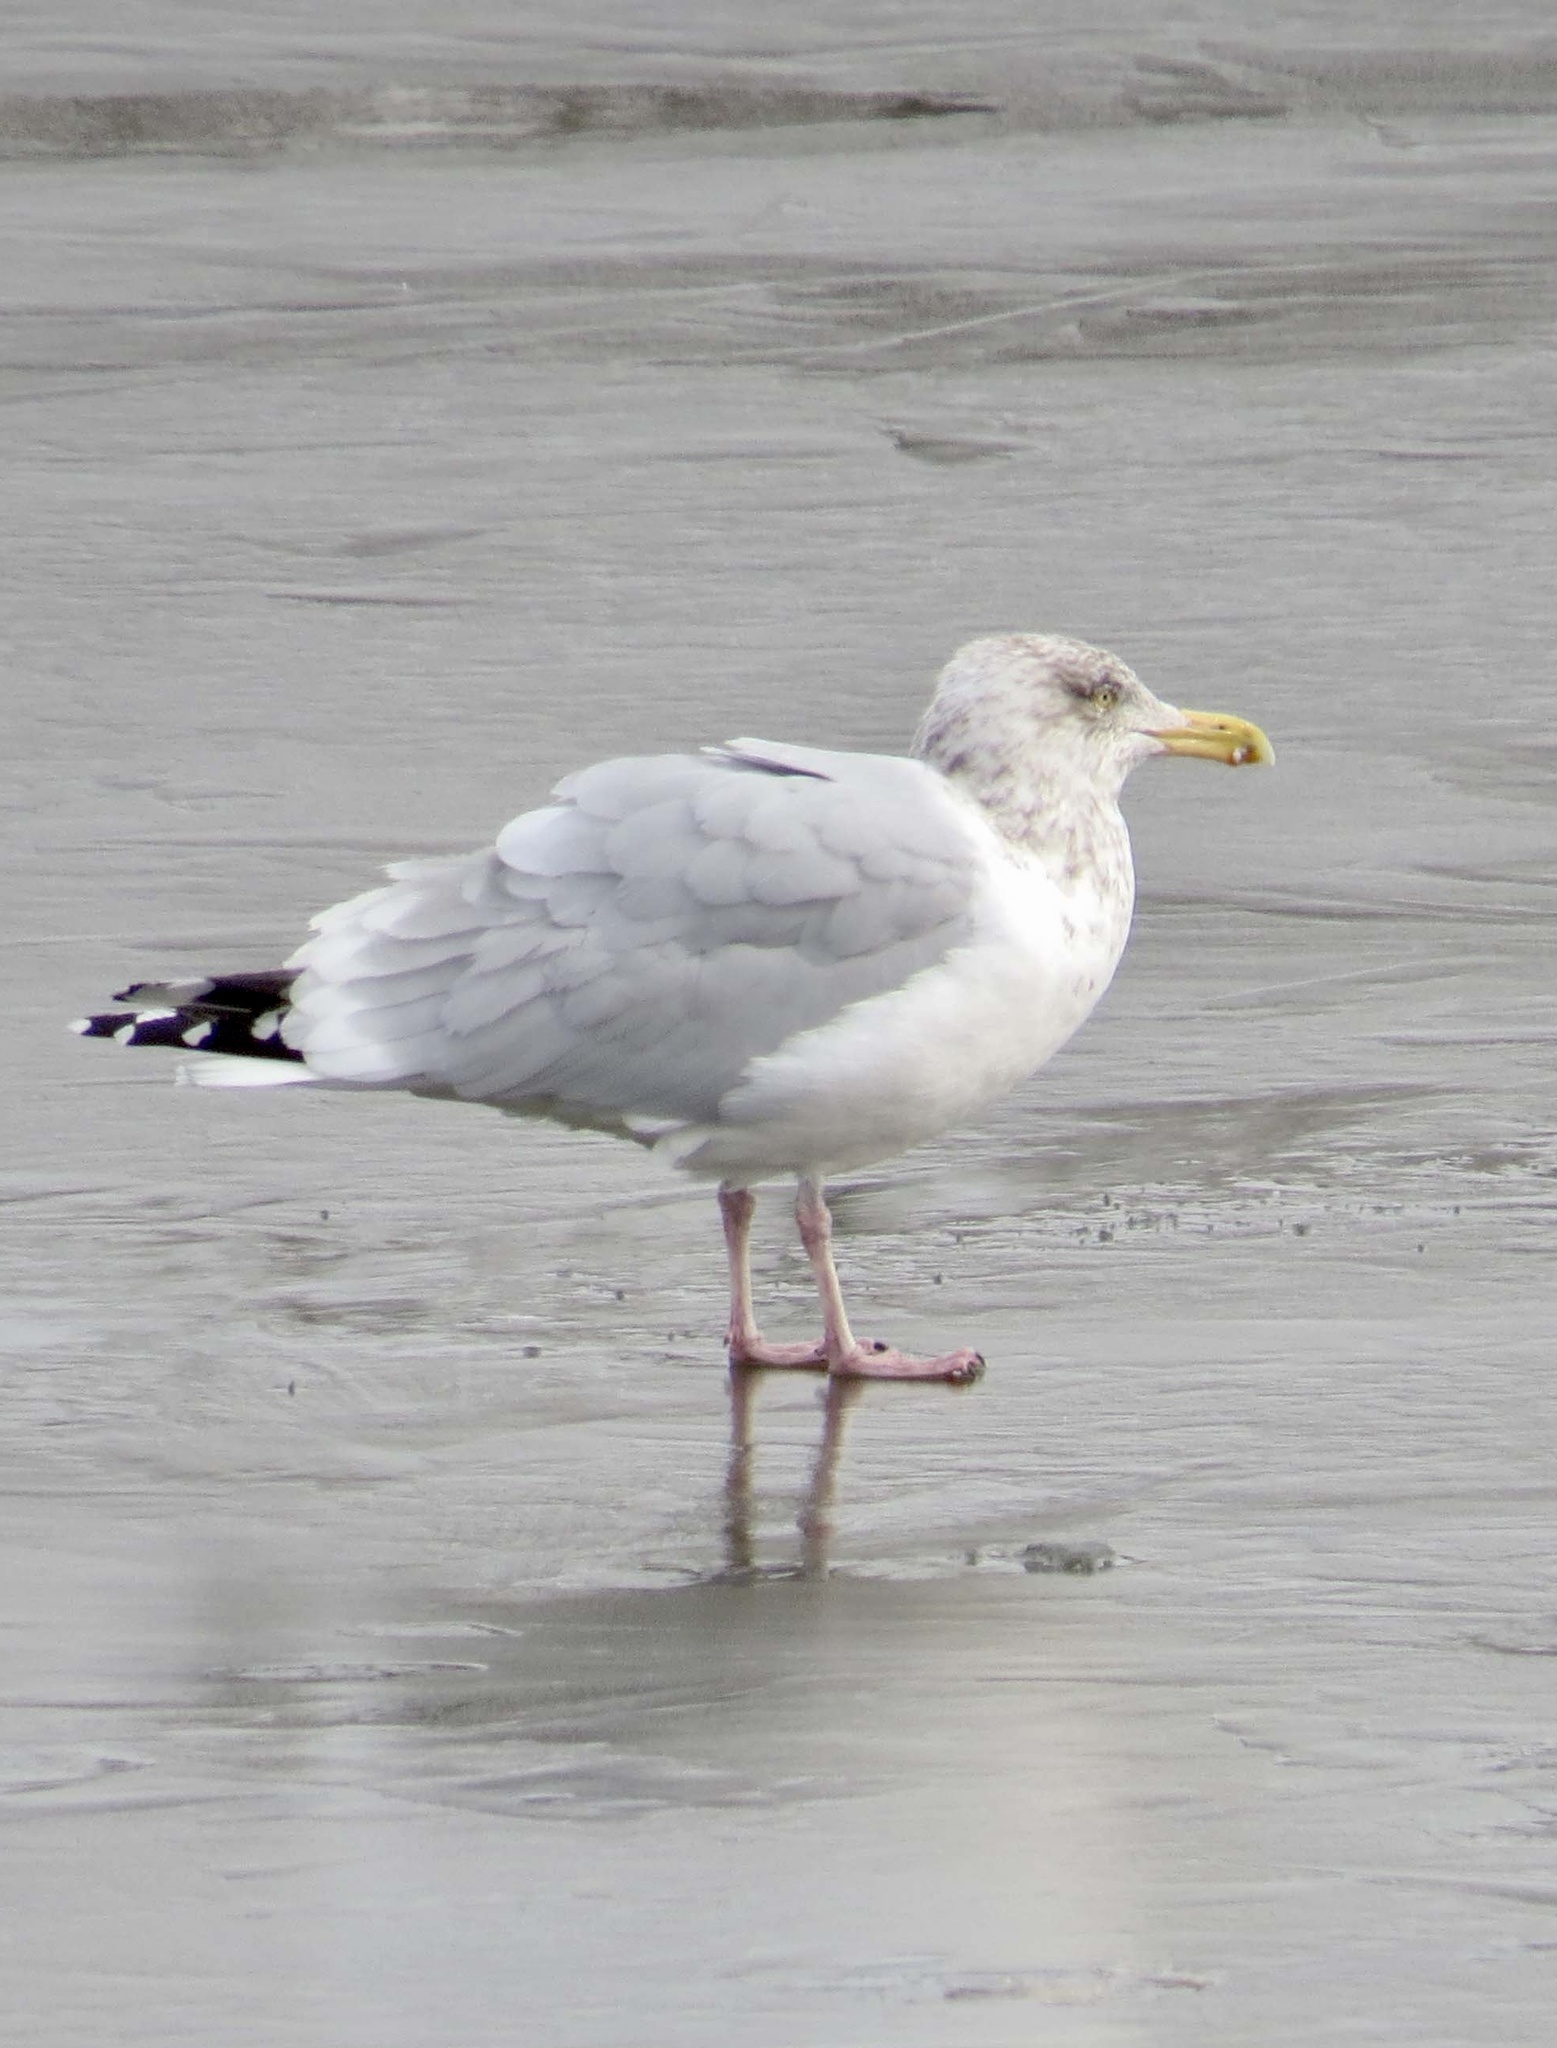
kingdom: Animalia
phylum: Chordata
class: Aves
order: Charadriiformes
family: Laridae
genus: Larus
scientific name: Larus argentatus
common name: Herring gull
